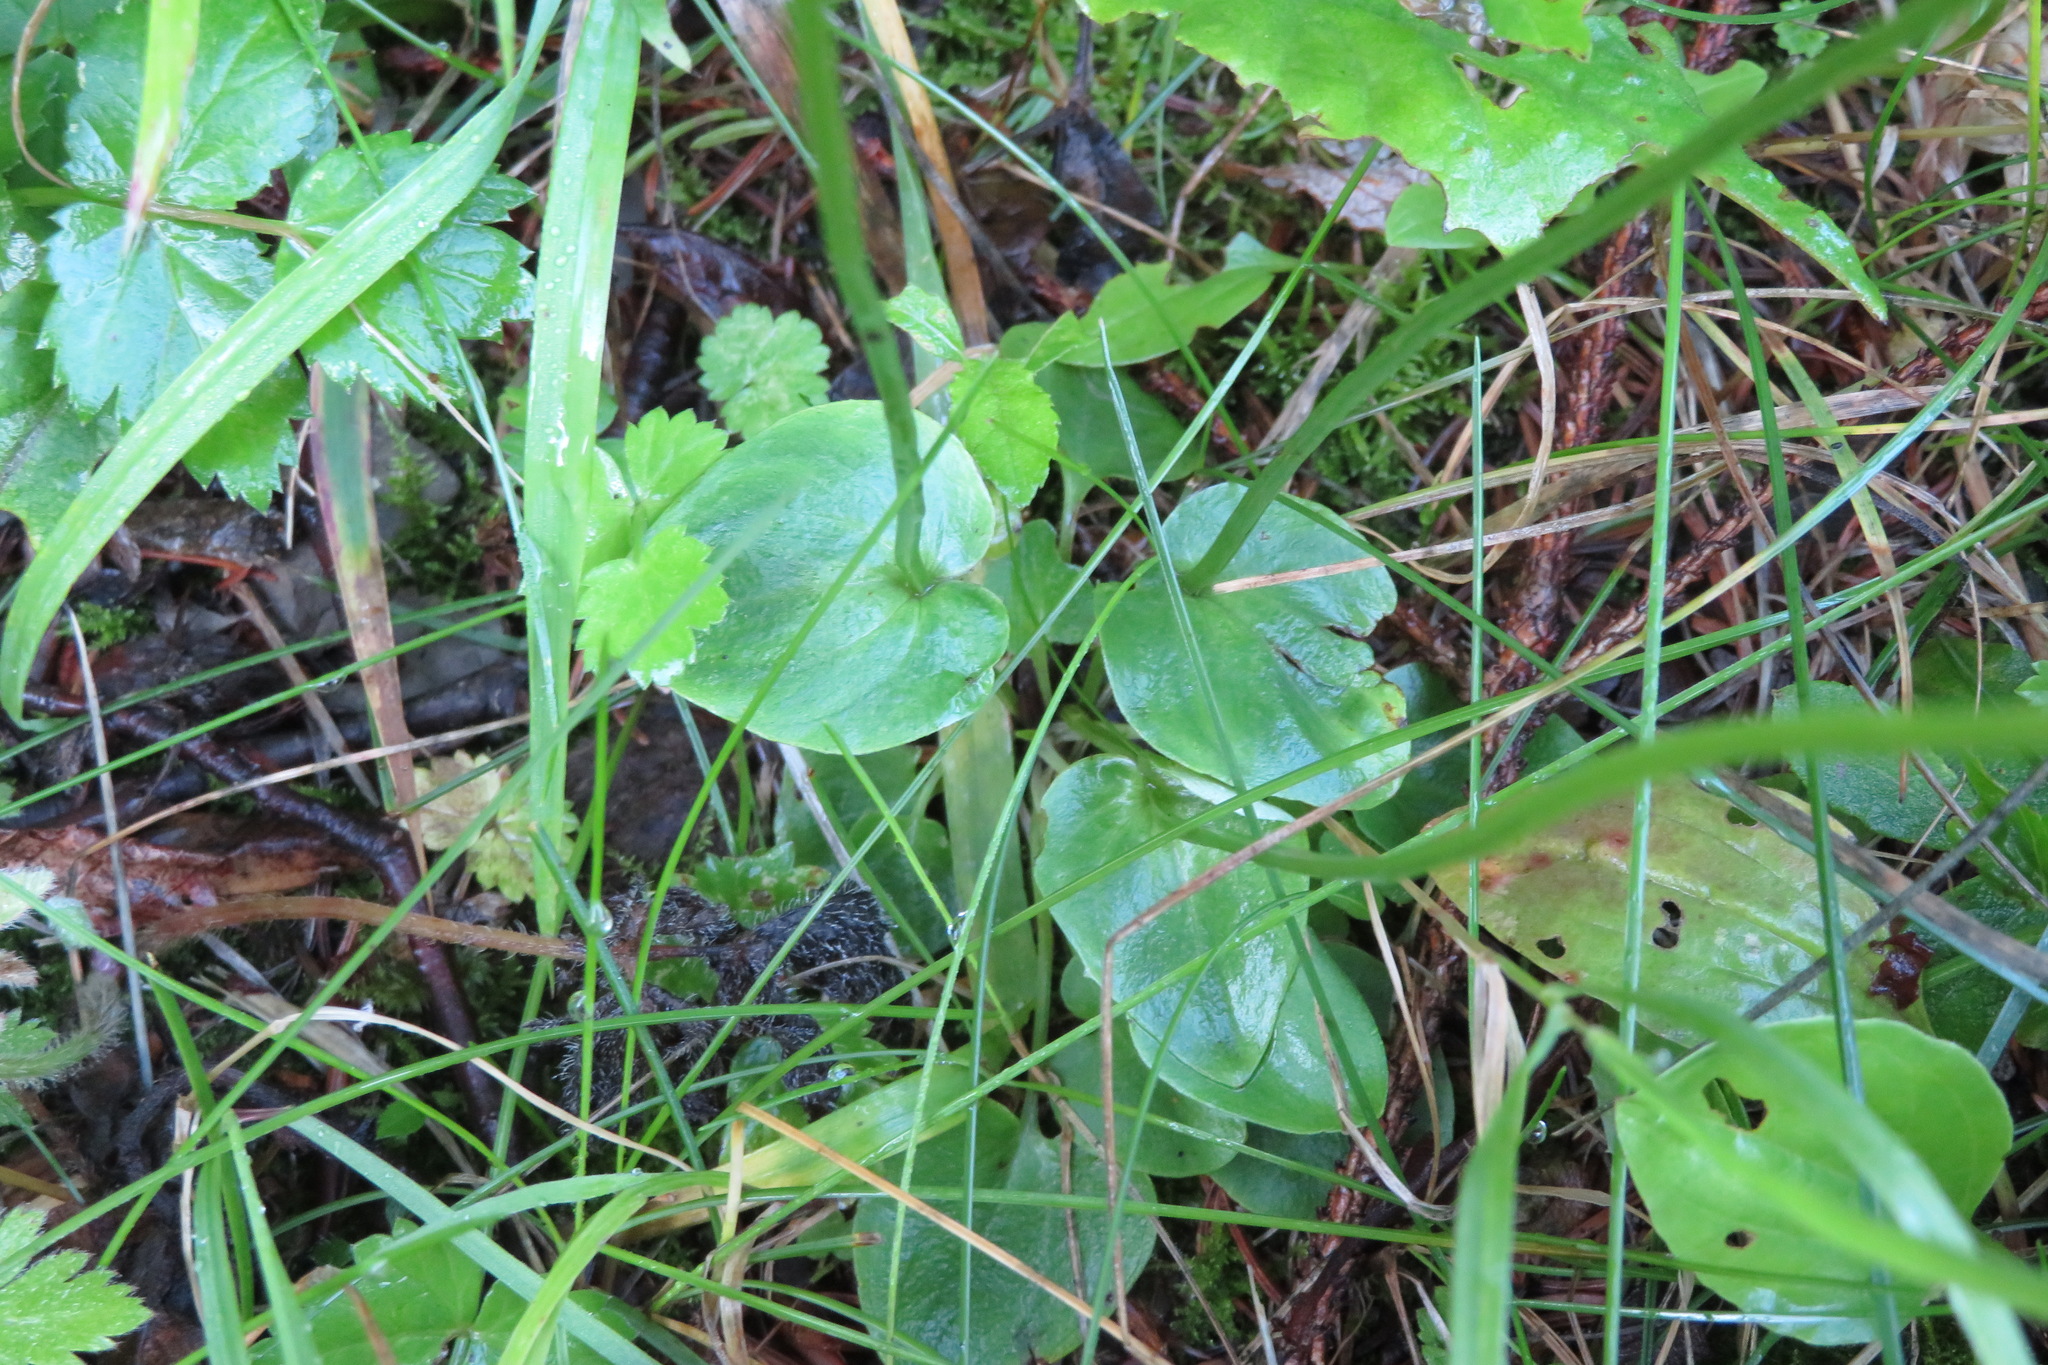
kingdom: Plantae
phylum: Tracheophyta
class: Magnoliopsida
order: Celastrales
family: Parnassiaceae
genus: Parnassia
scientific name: Parnassia palustris
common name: Grass-of-parnassus
